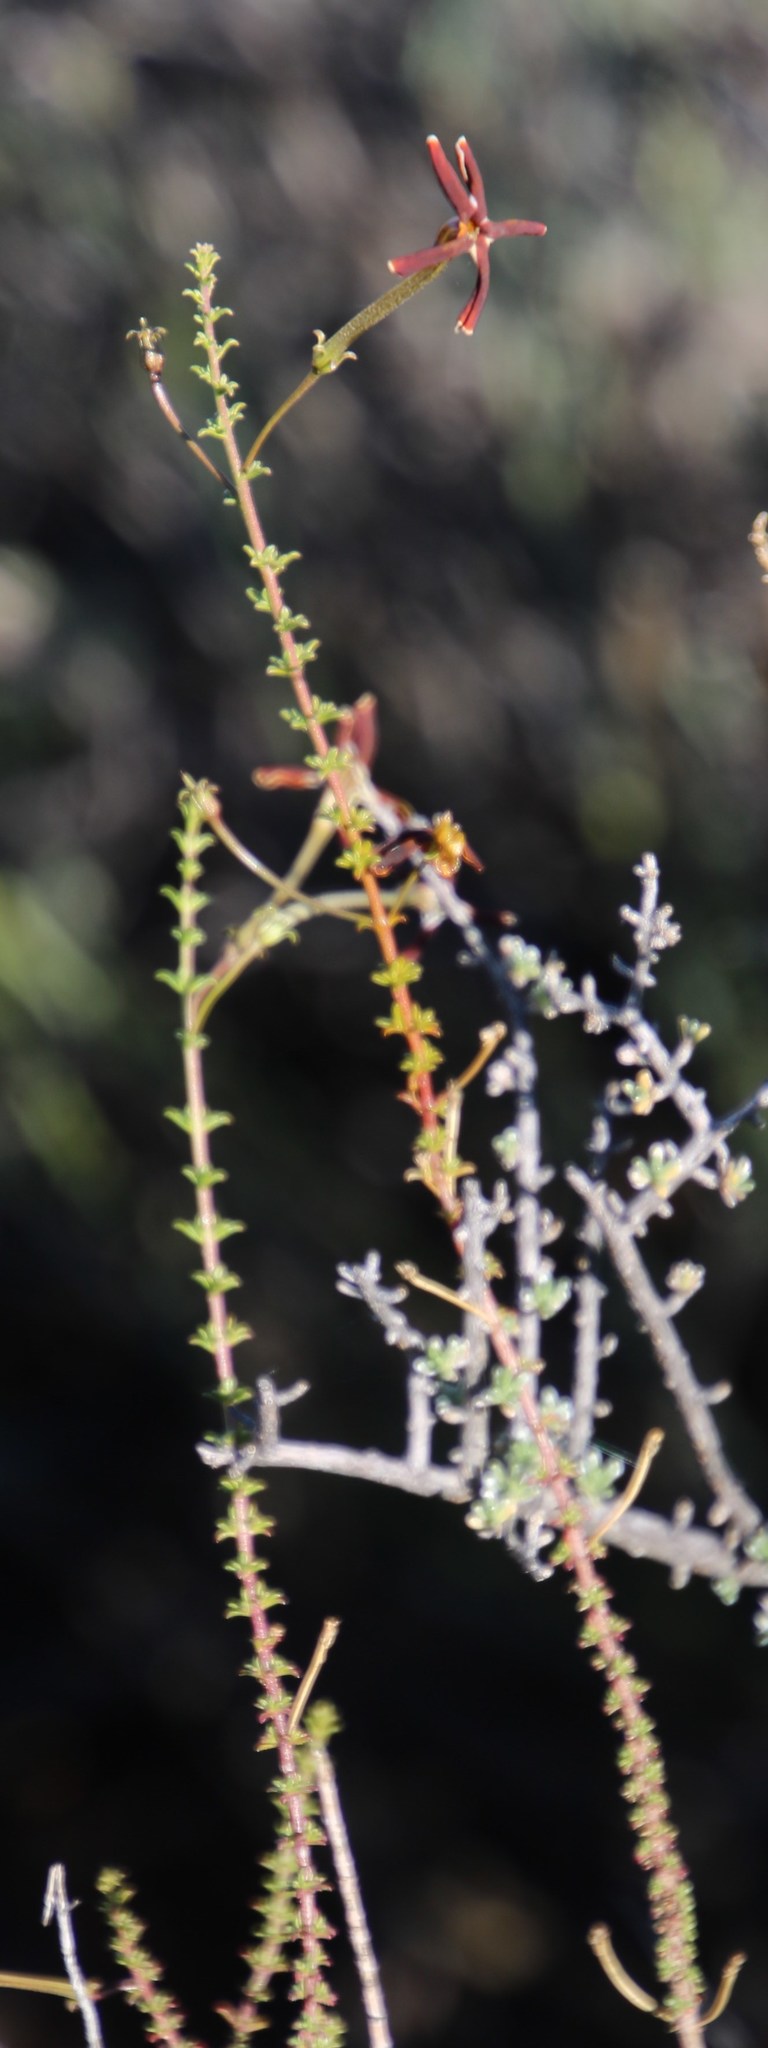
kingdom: Plantae
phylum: Tracheophyta
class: Magnoliopsida
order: Lamiales
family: Scrophulariaceae
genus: Jamesbrittenia
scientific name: Jamesbrittenia atropurpurea
